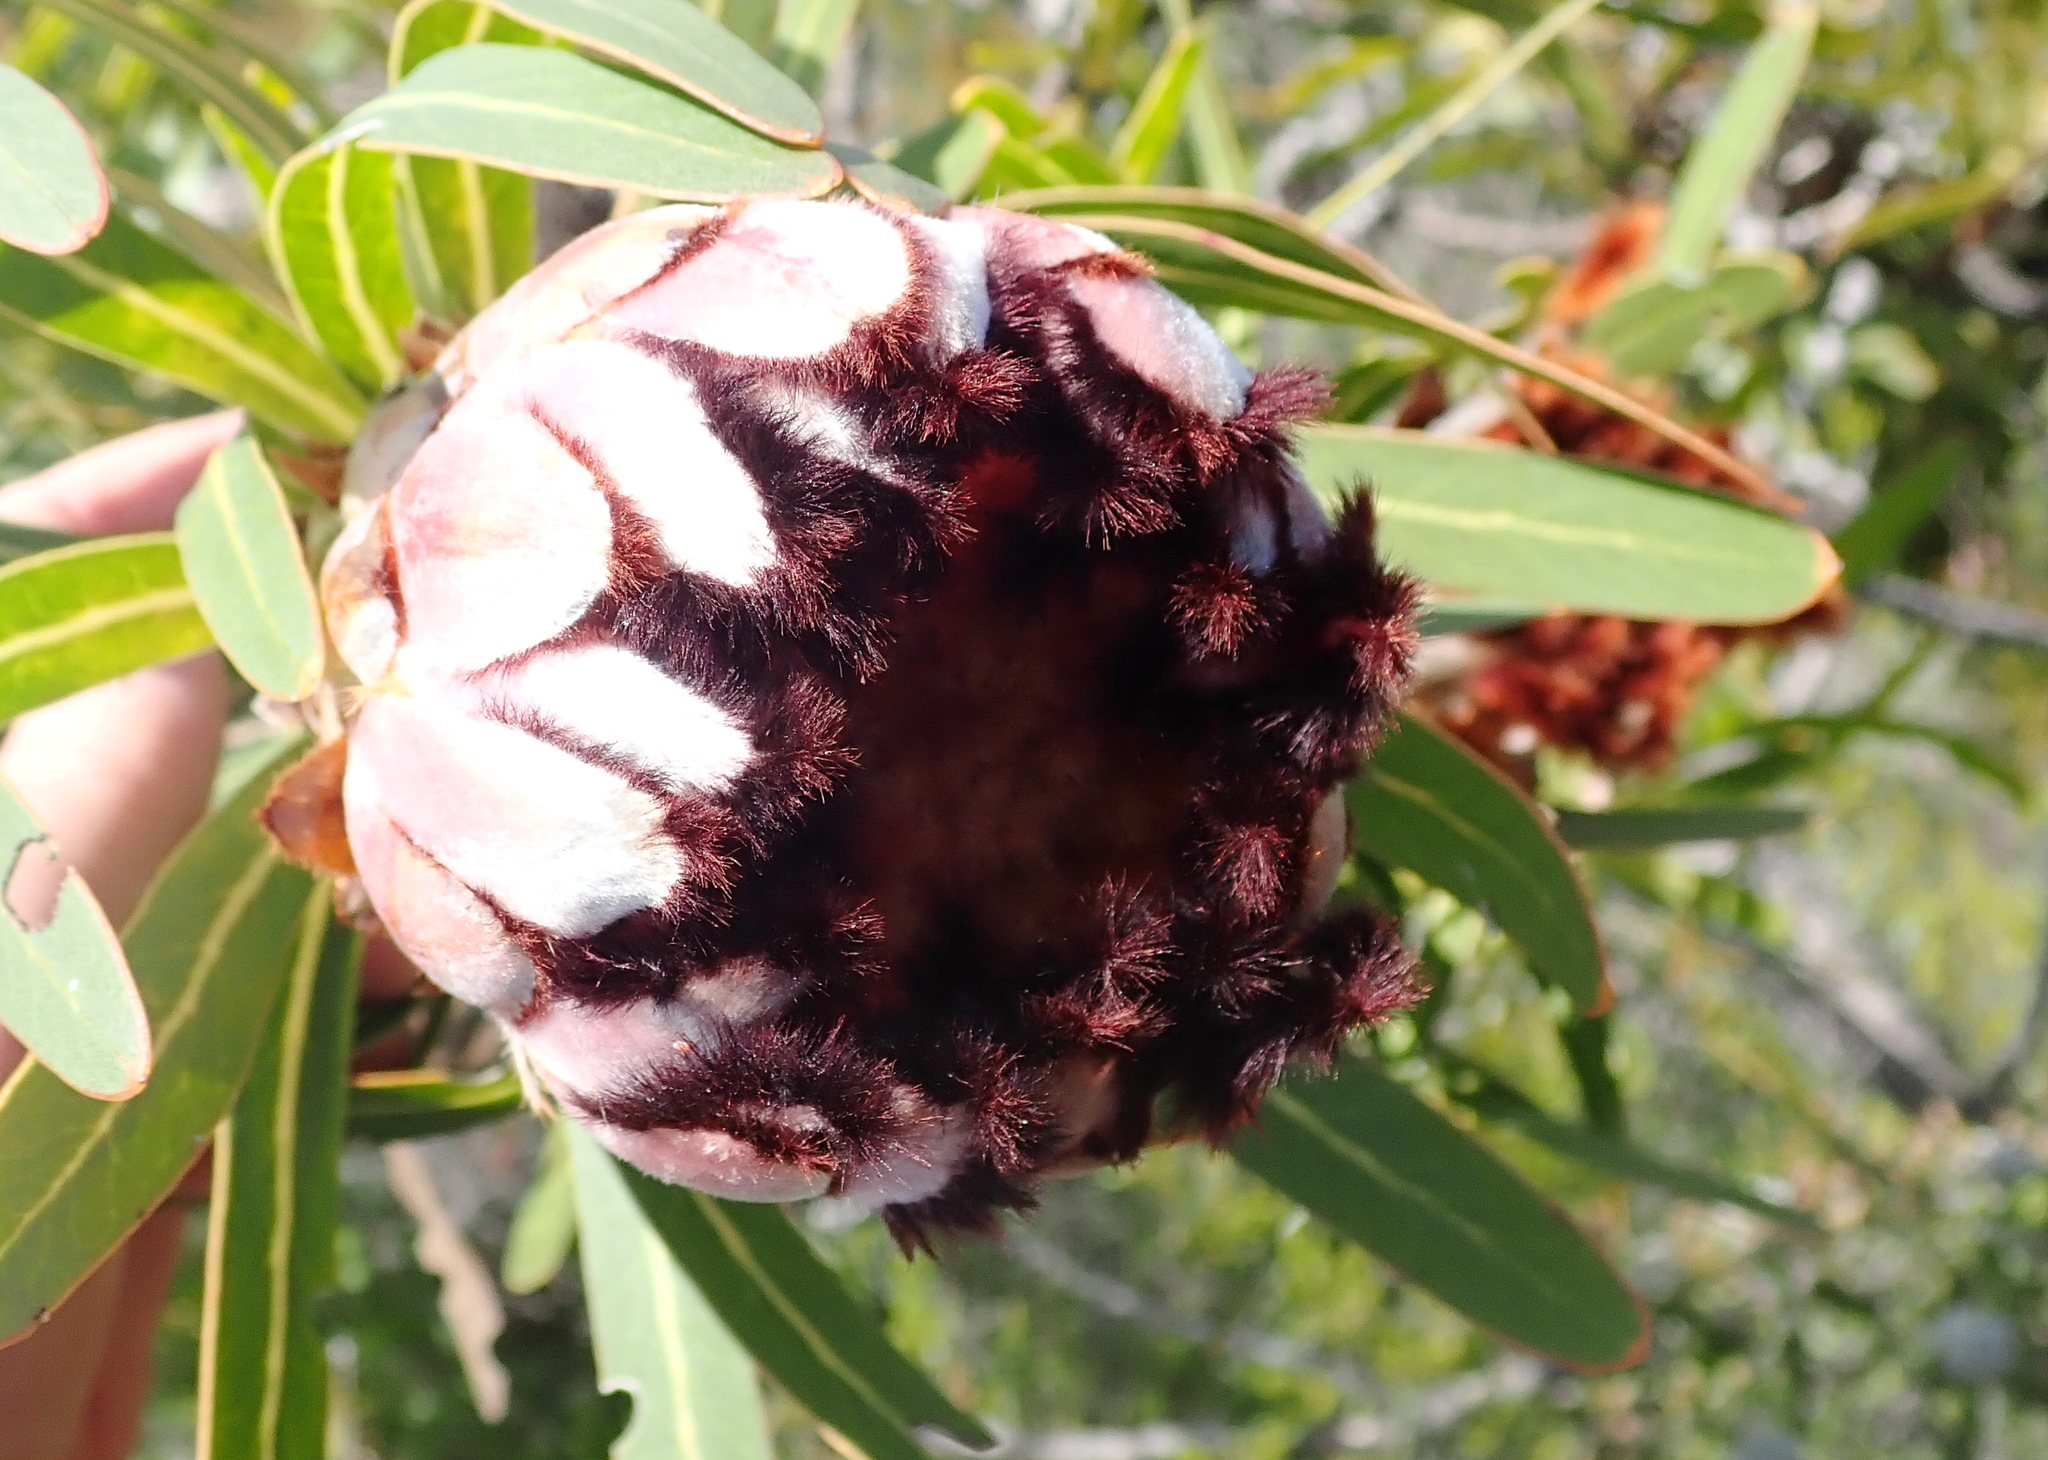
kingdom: Plantae
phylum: Tracheophyta
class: Magnoliopsida
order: Proteales
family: Proteaceae
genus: Protea
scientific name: Protea neriifolia
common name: Blue sugarbush
